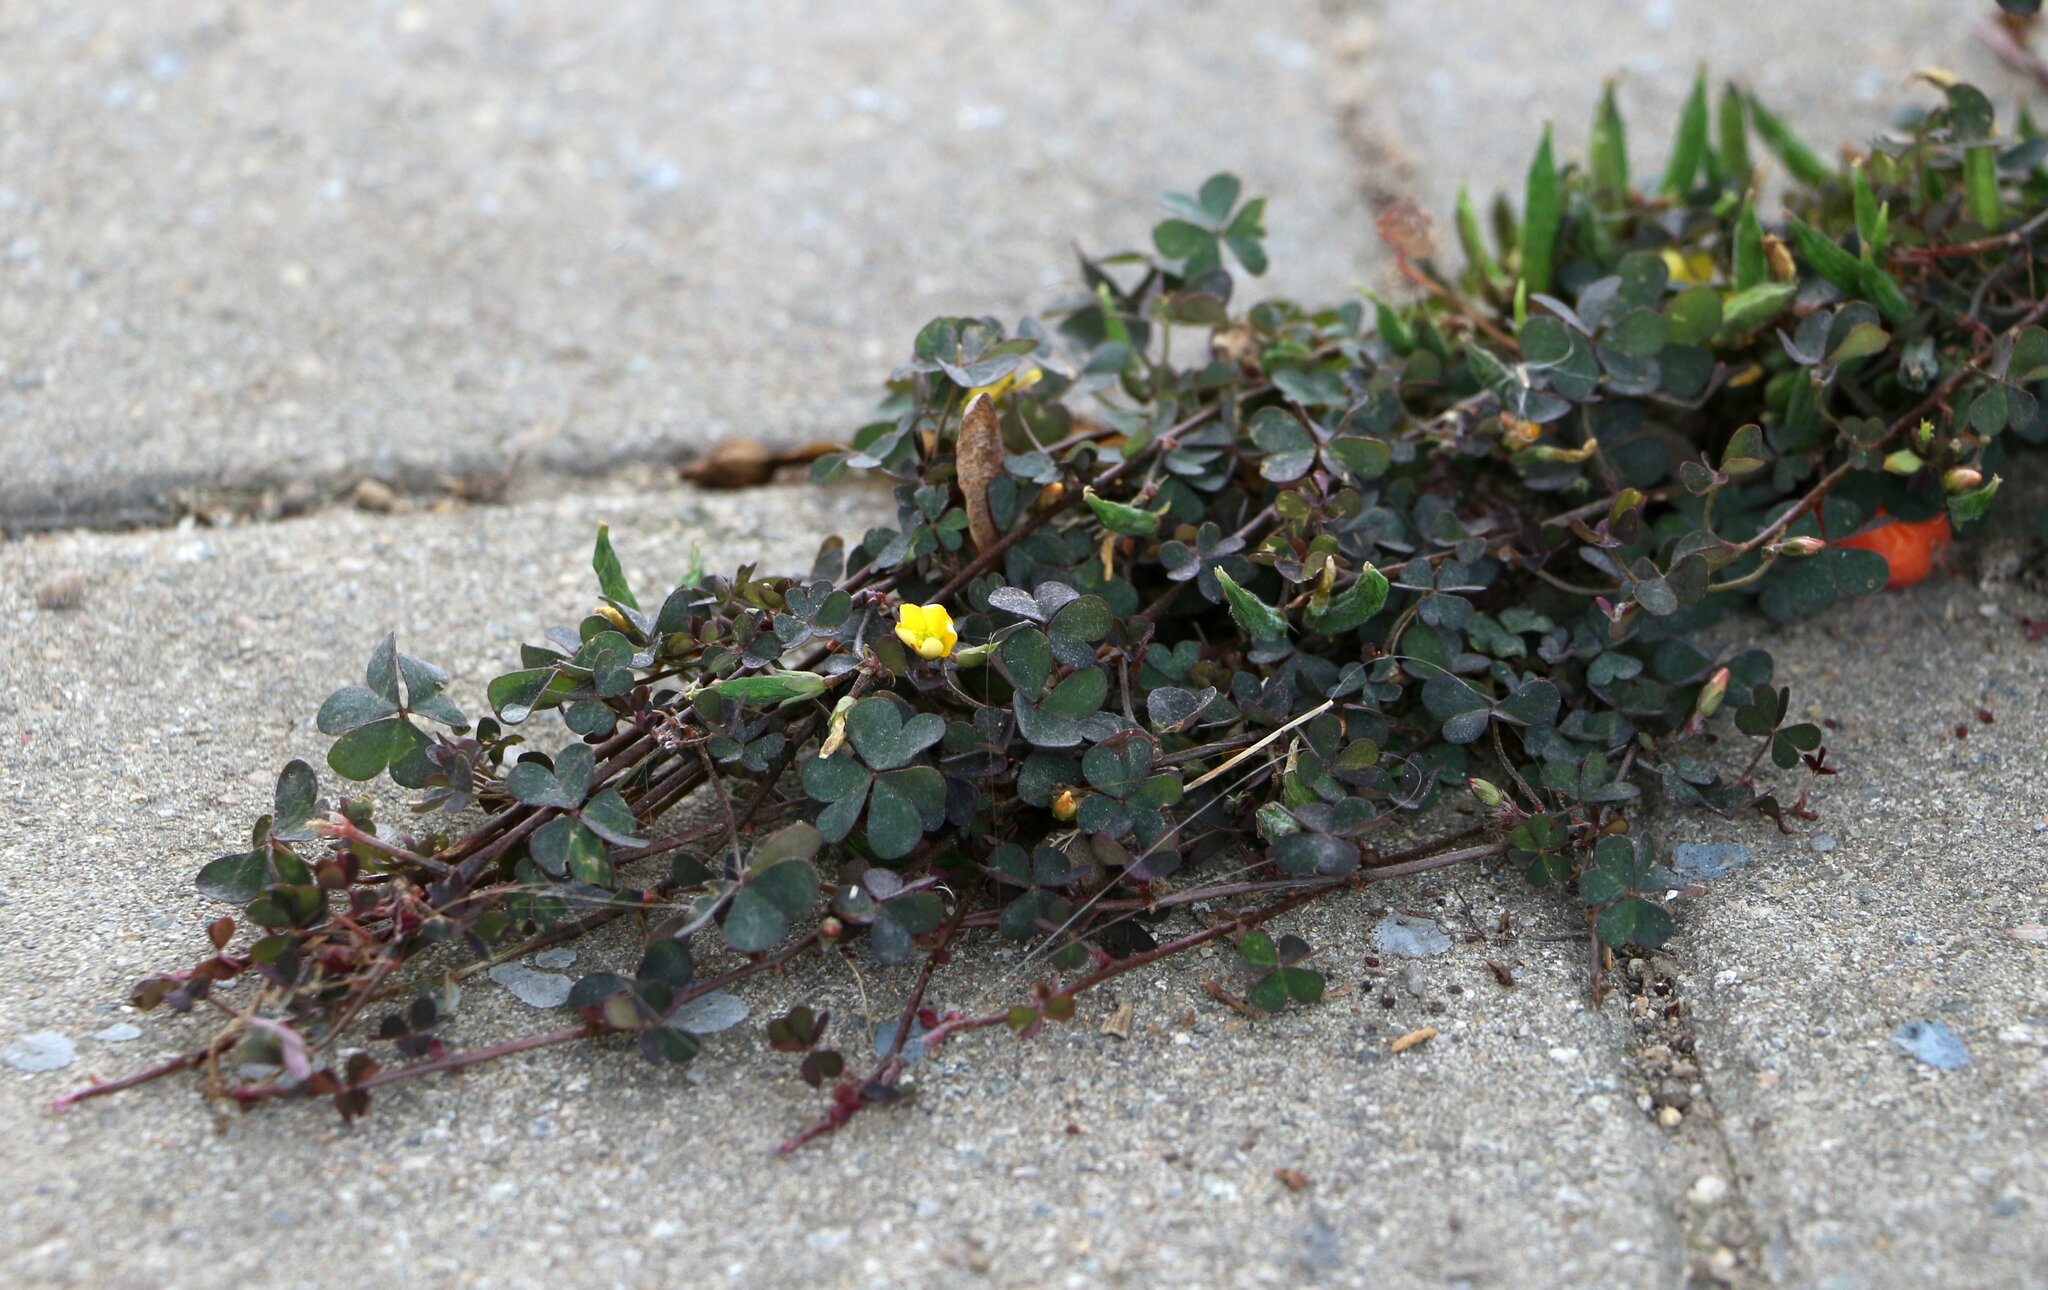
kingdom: Plantae
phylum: Tracheophyta
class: Magnoliopsida
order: Oxalidales
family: Oxalidaceae
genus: Oxalis
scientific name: Oxalis corniculata
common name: Procumbent yellow-sorrel
